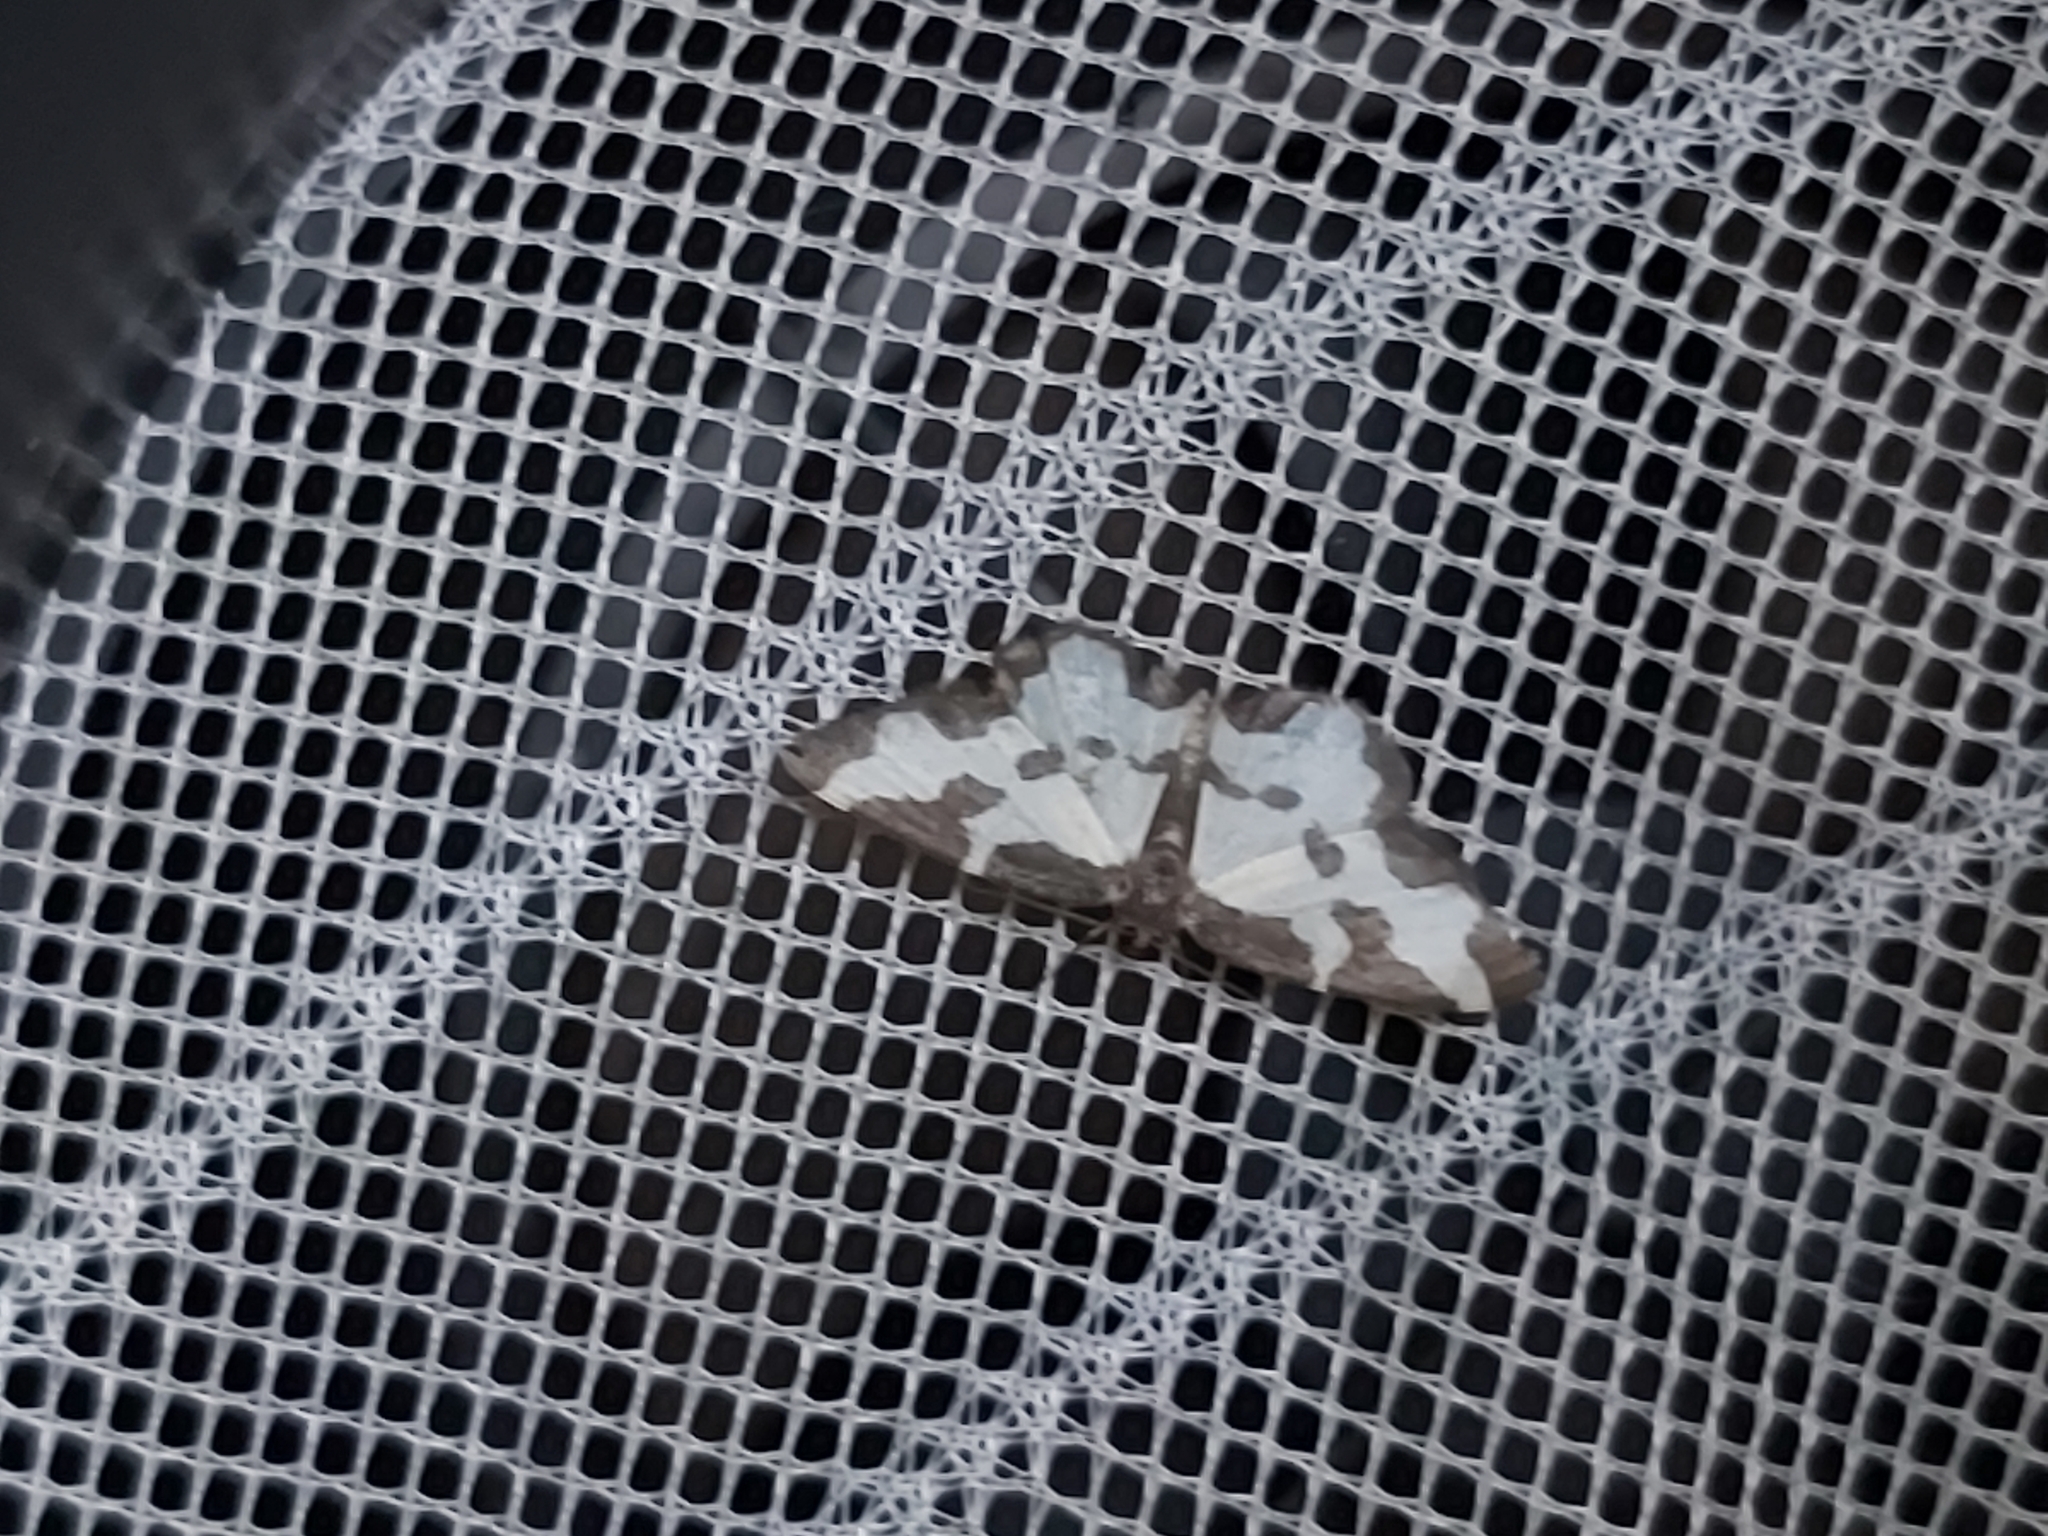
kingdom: Animalia
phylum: Arthropoda
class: Insecta
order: Lepidoptera
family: Geometridae
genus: Lomaspilis
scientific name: Lomaspilis marginata
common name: Clouded border
